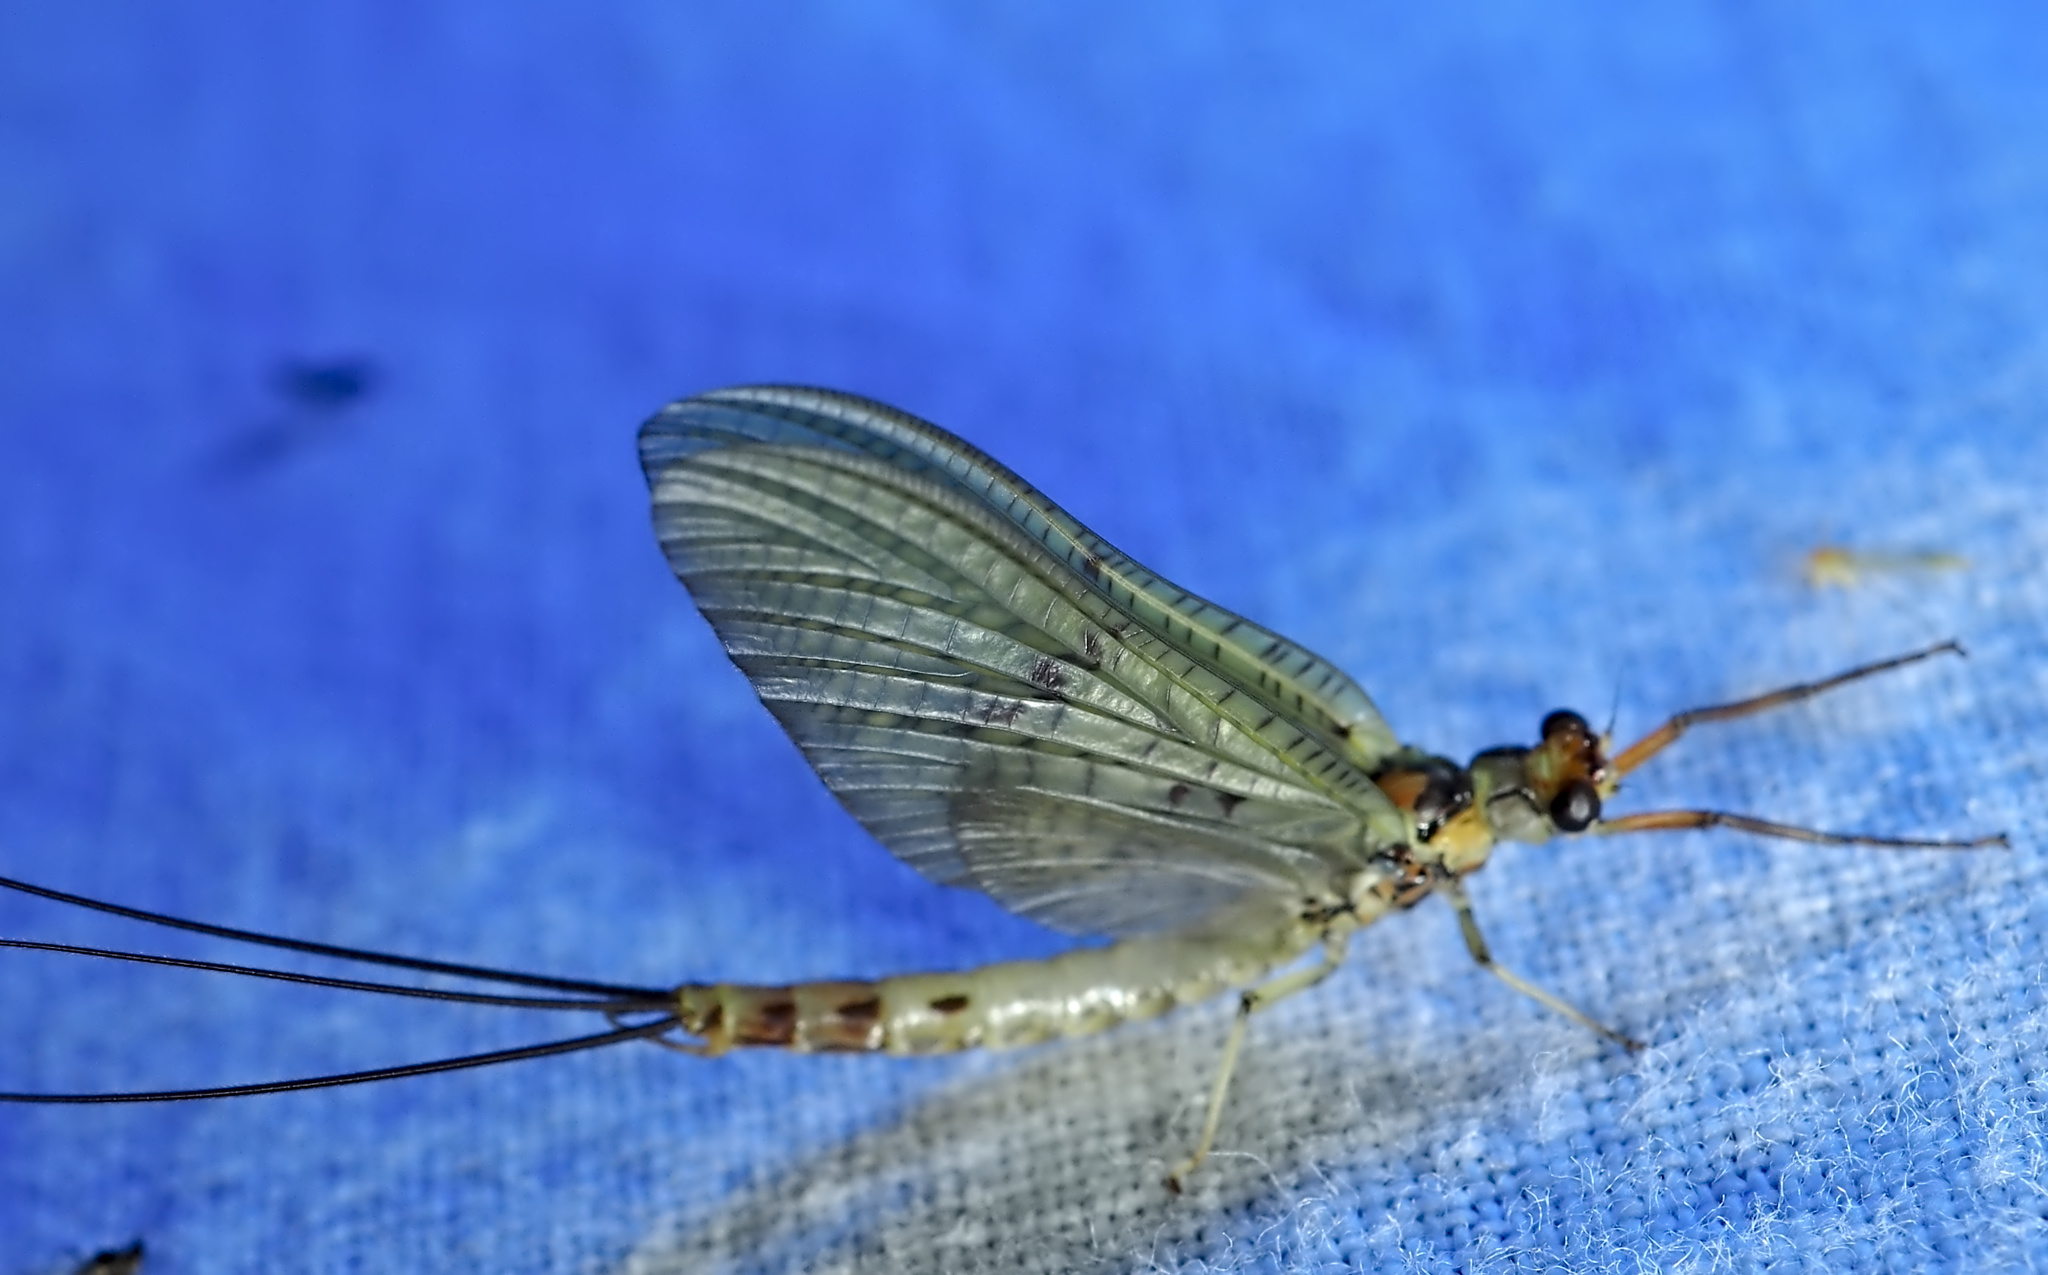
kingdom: Animalia
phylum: Arthropoda
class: Insecta
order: Ephemeroptera
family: Ephemeridae
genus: Ephemera
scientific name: Ephemera danica
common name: Green dun
